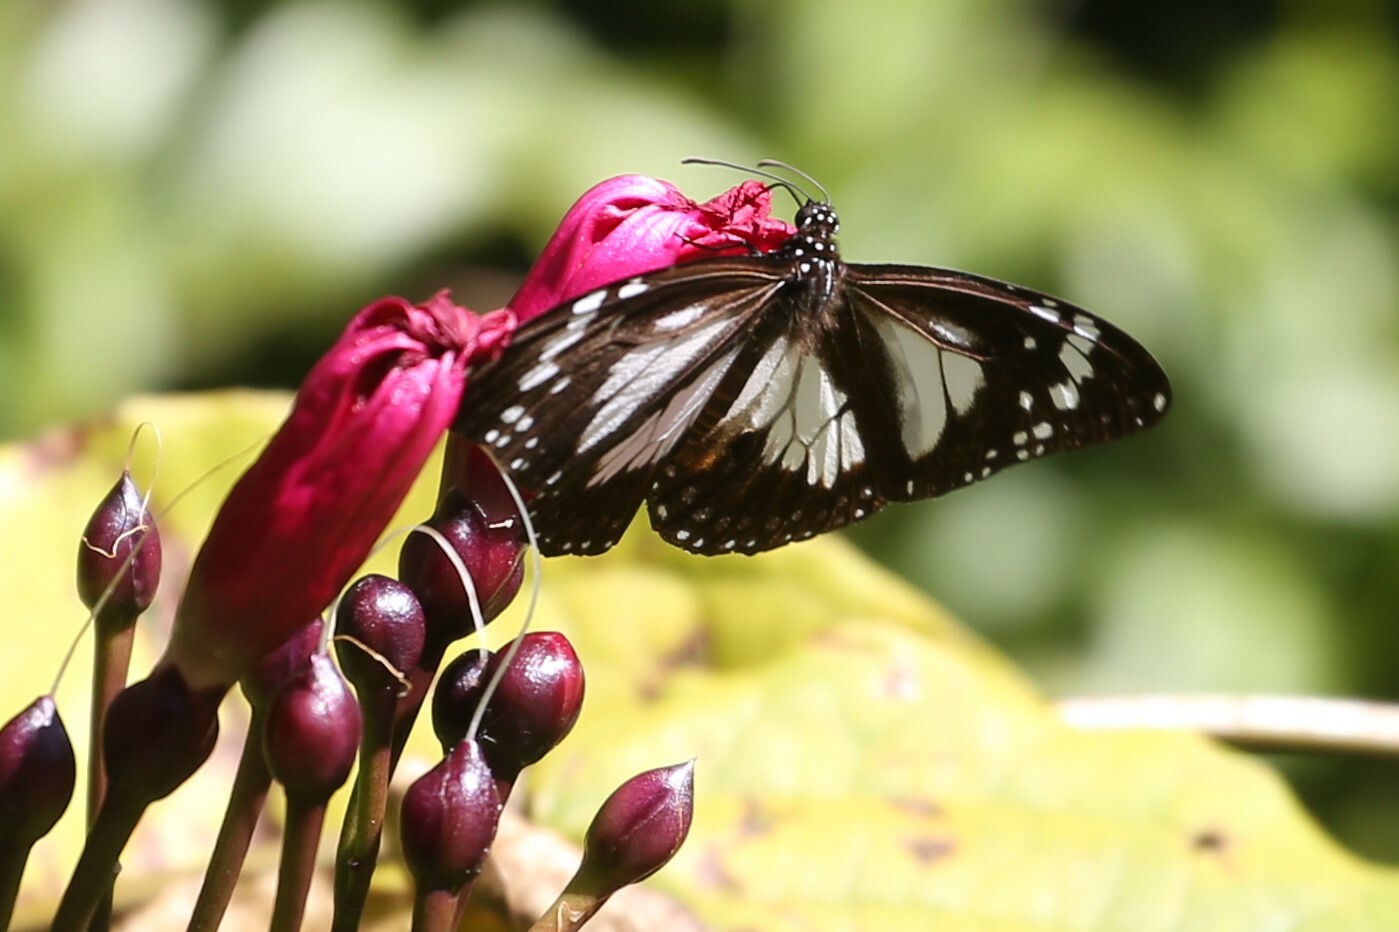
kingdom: Animalia
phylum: Arthropoda
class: Insecta
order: Lepidoptera
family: Nymphalidae
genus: Danaus
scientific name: Danaus affinis
